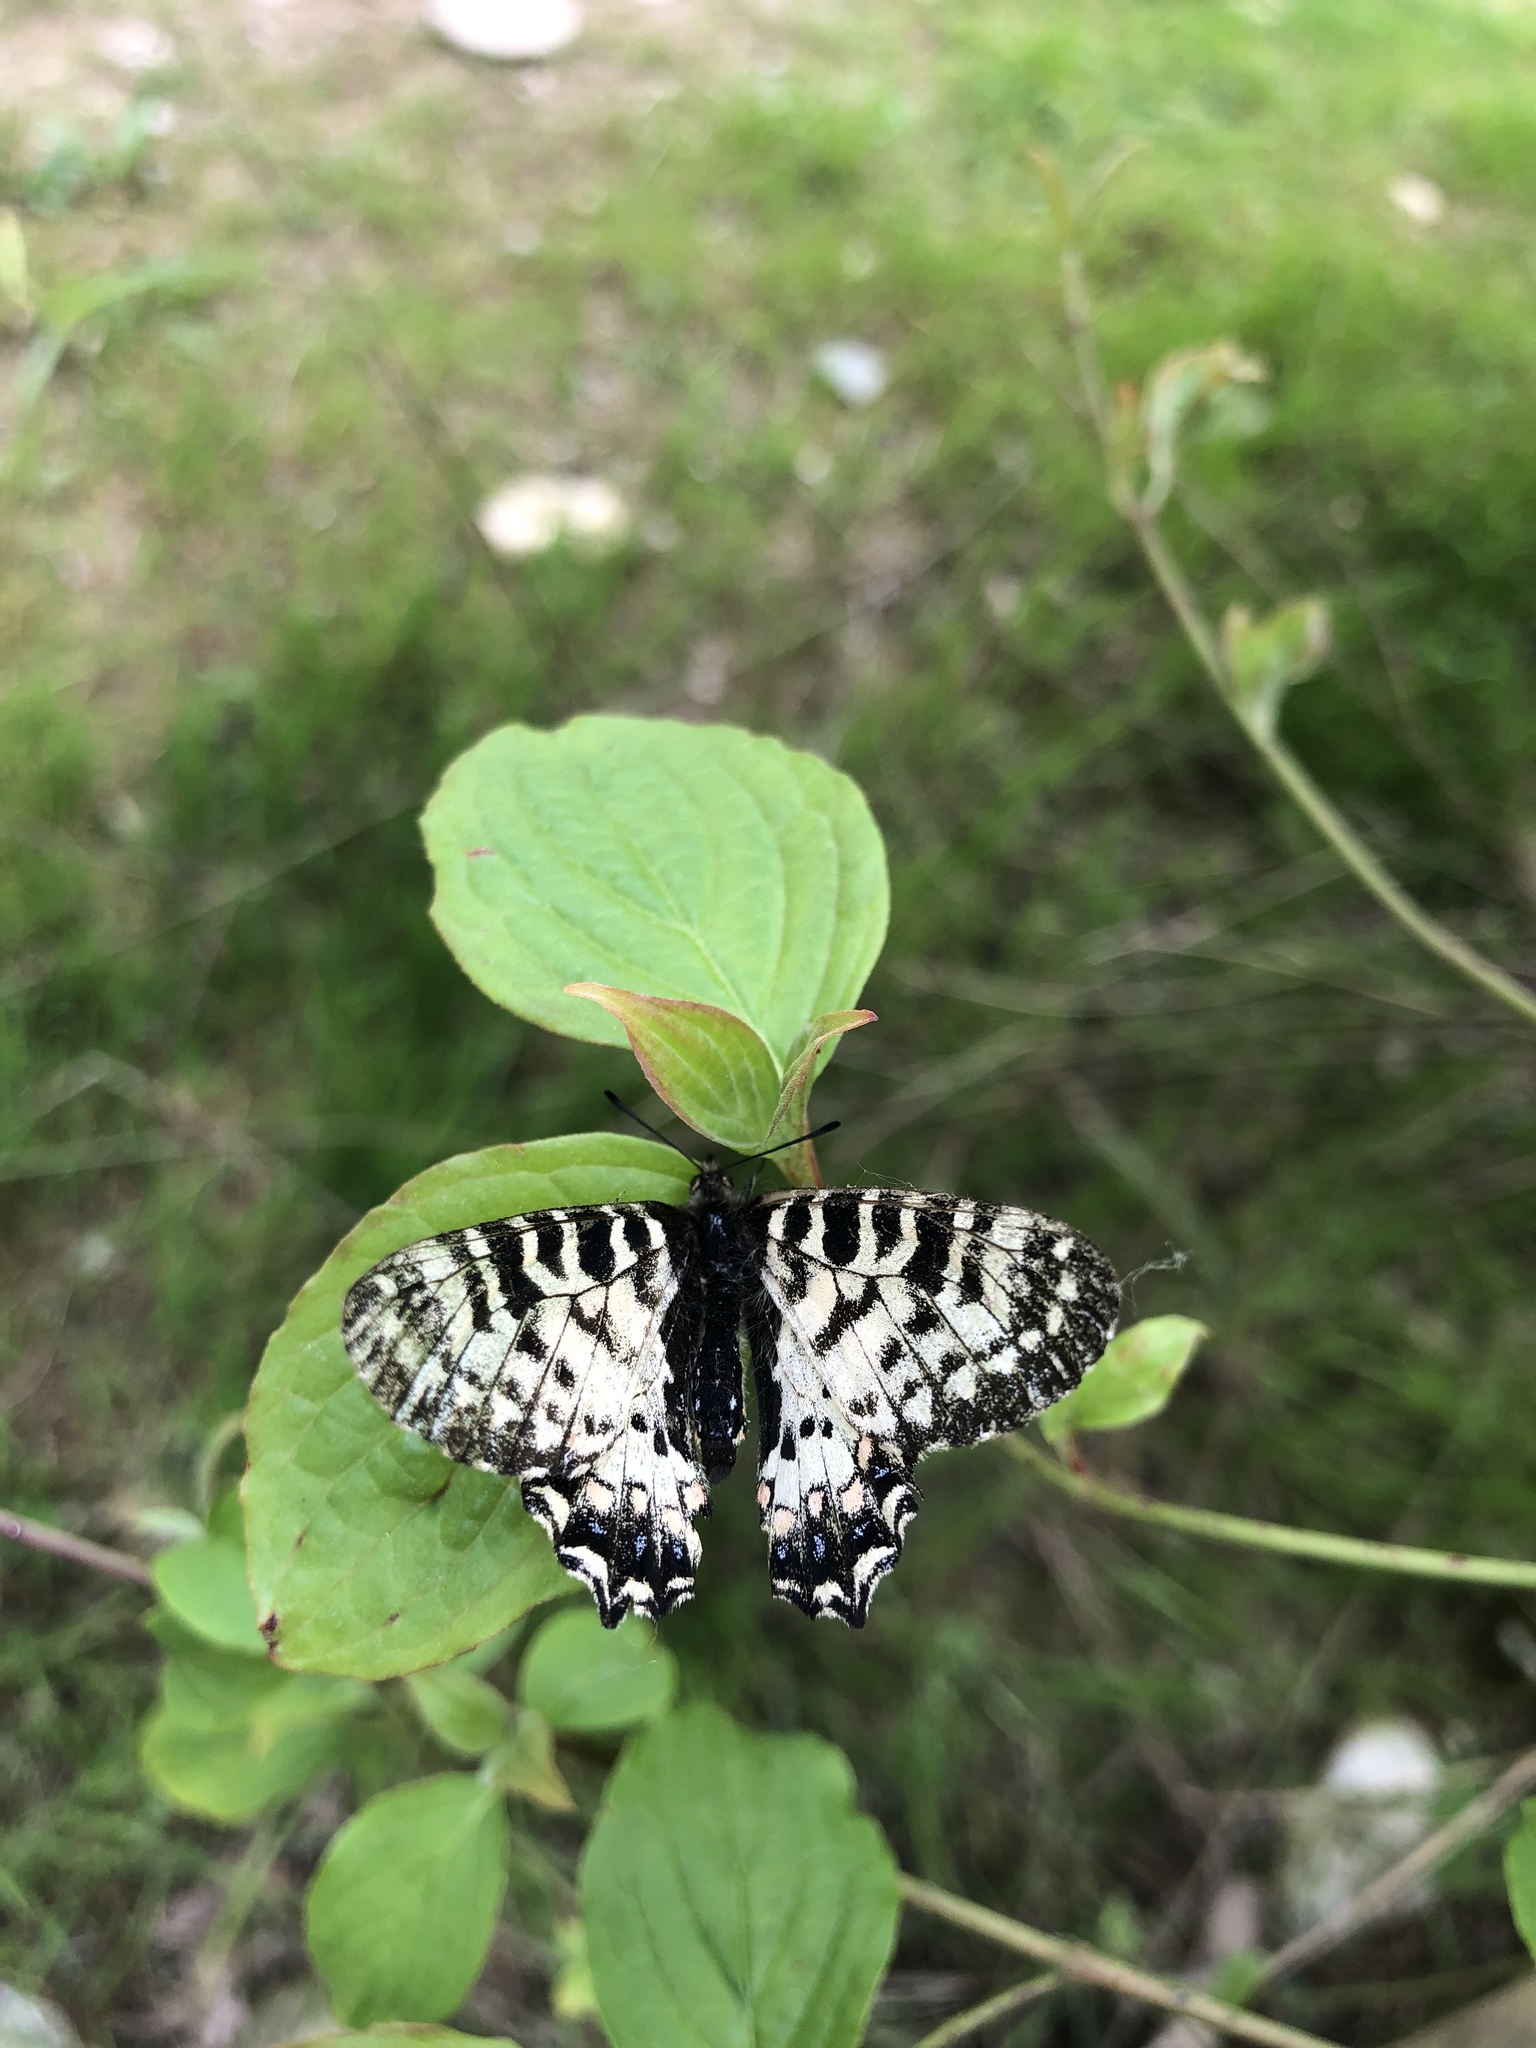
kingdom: Animalia
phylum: Arthropoda
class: Insecta
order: Lepidoptera
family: Papilionidae
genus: Zerynthia
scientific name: Zerynthia caucasica
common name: Caucasian festoon
